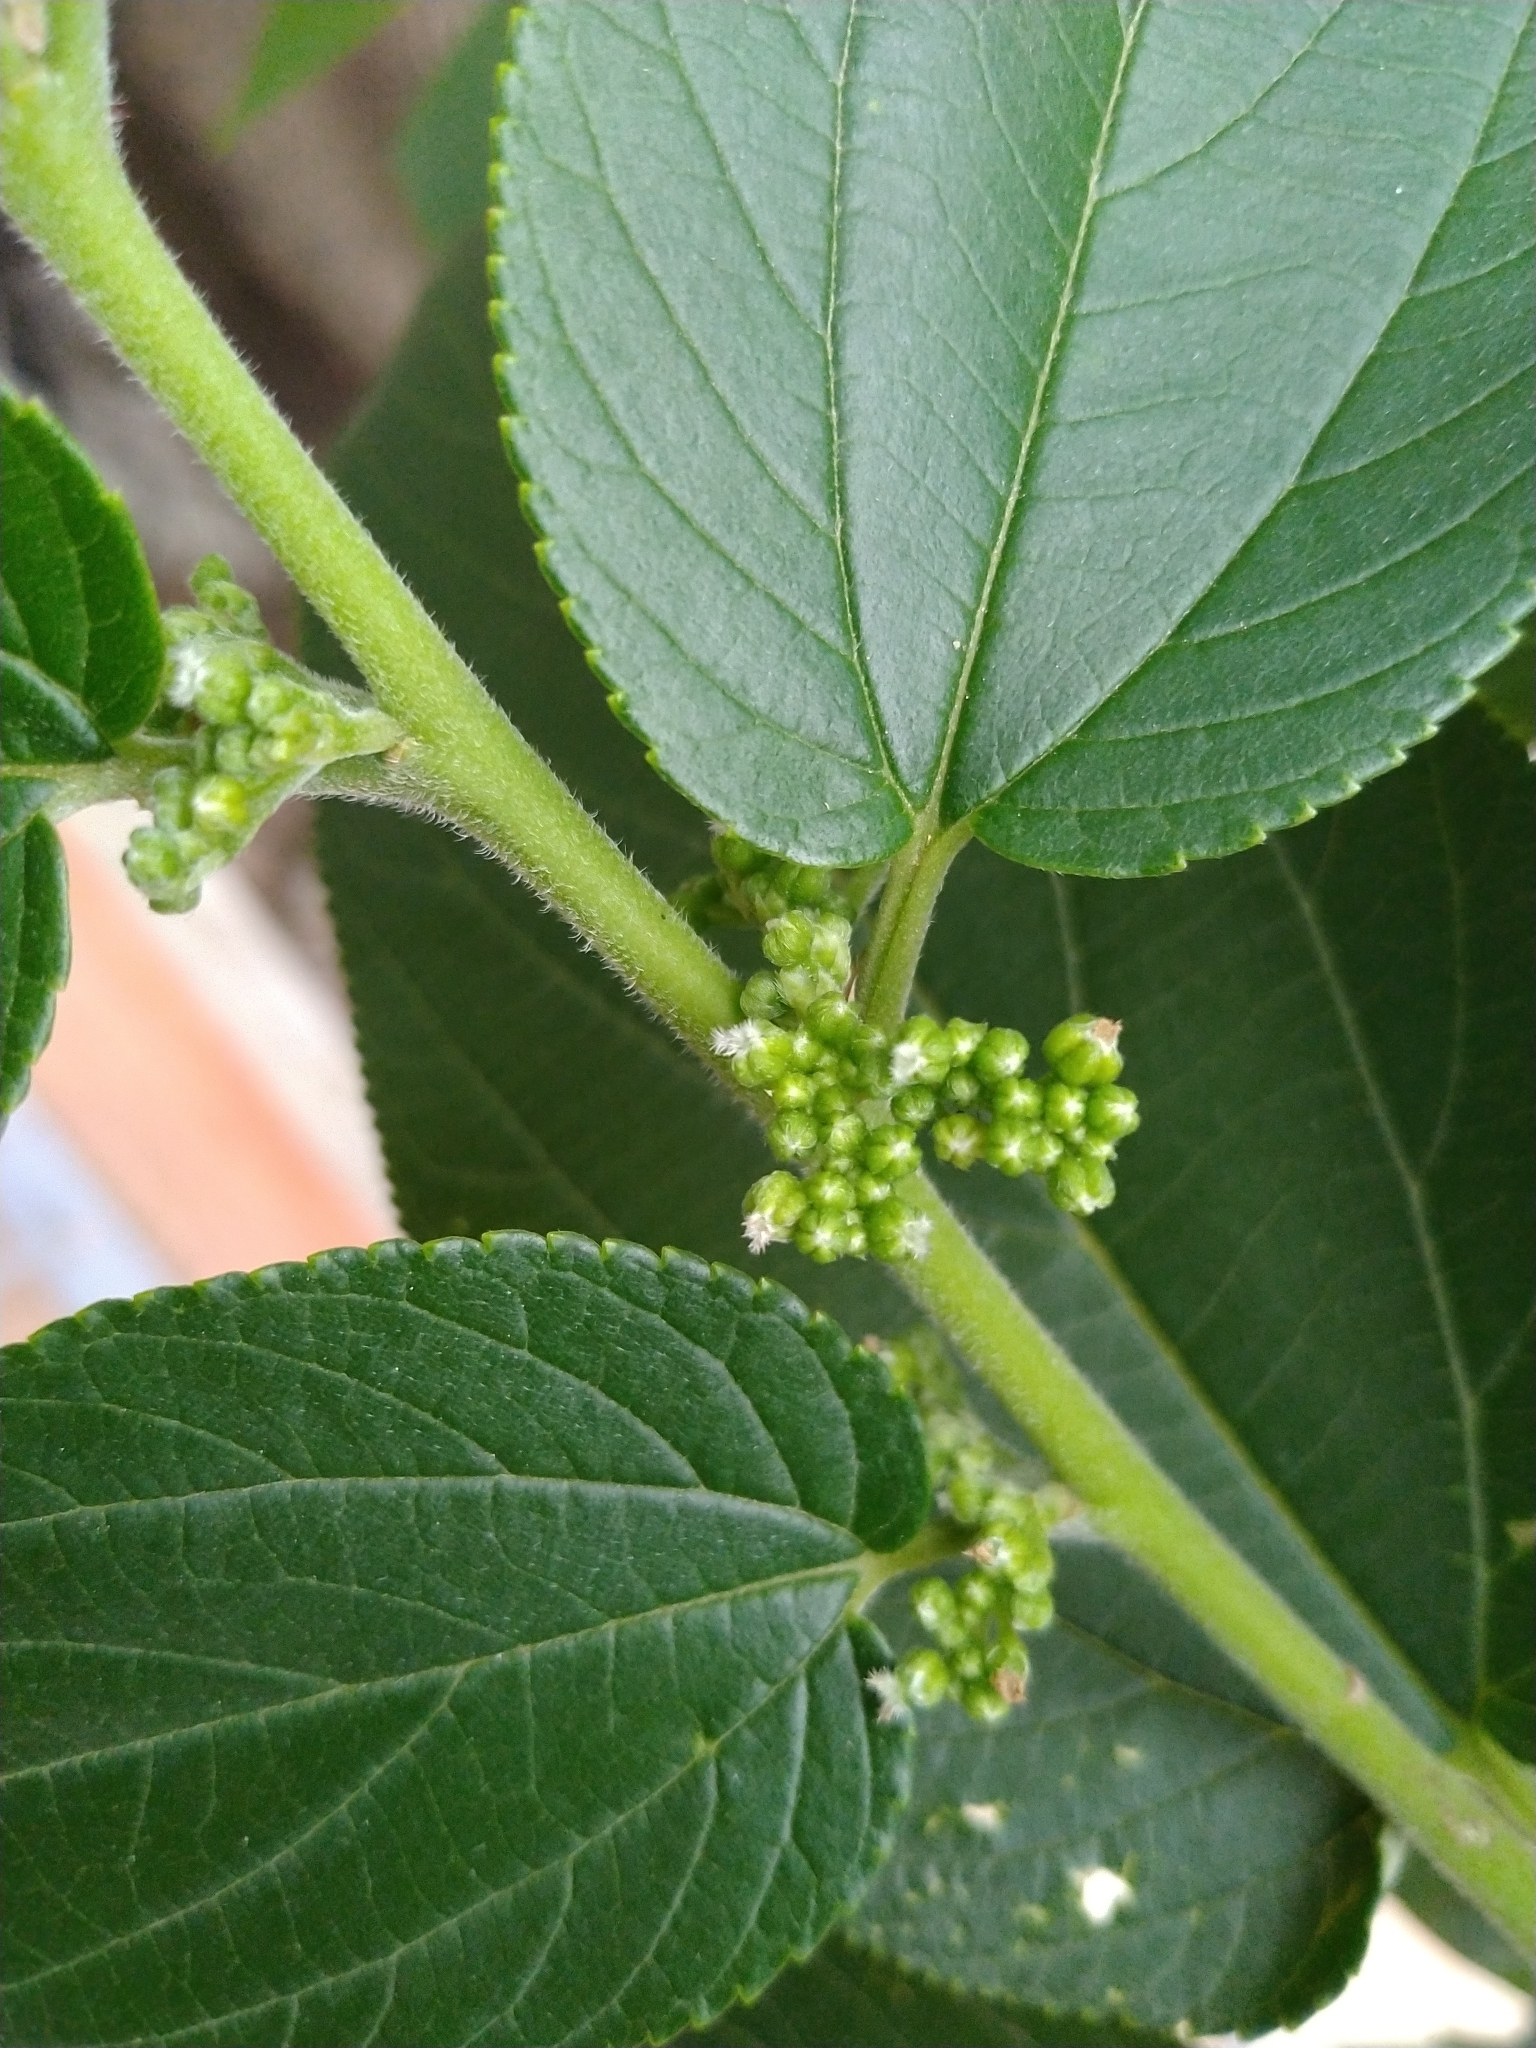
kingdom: Plantae
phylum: Tracheophyta
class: Magnoliopsida
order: Rosales
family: Cannabaceae
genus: Trema
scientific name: Trema orientale
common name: Indian charcoal tree
